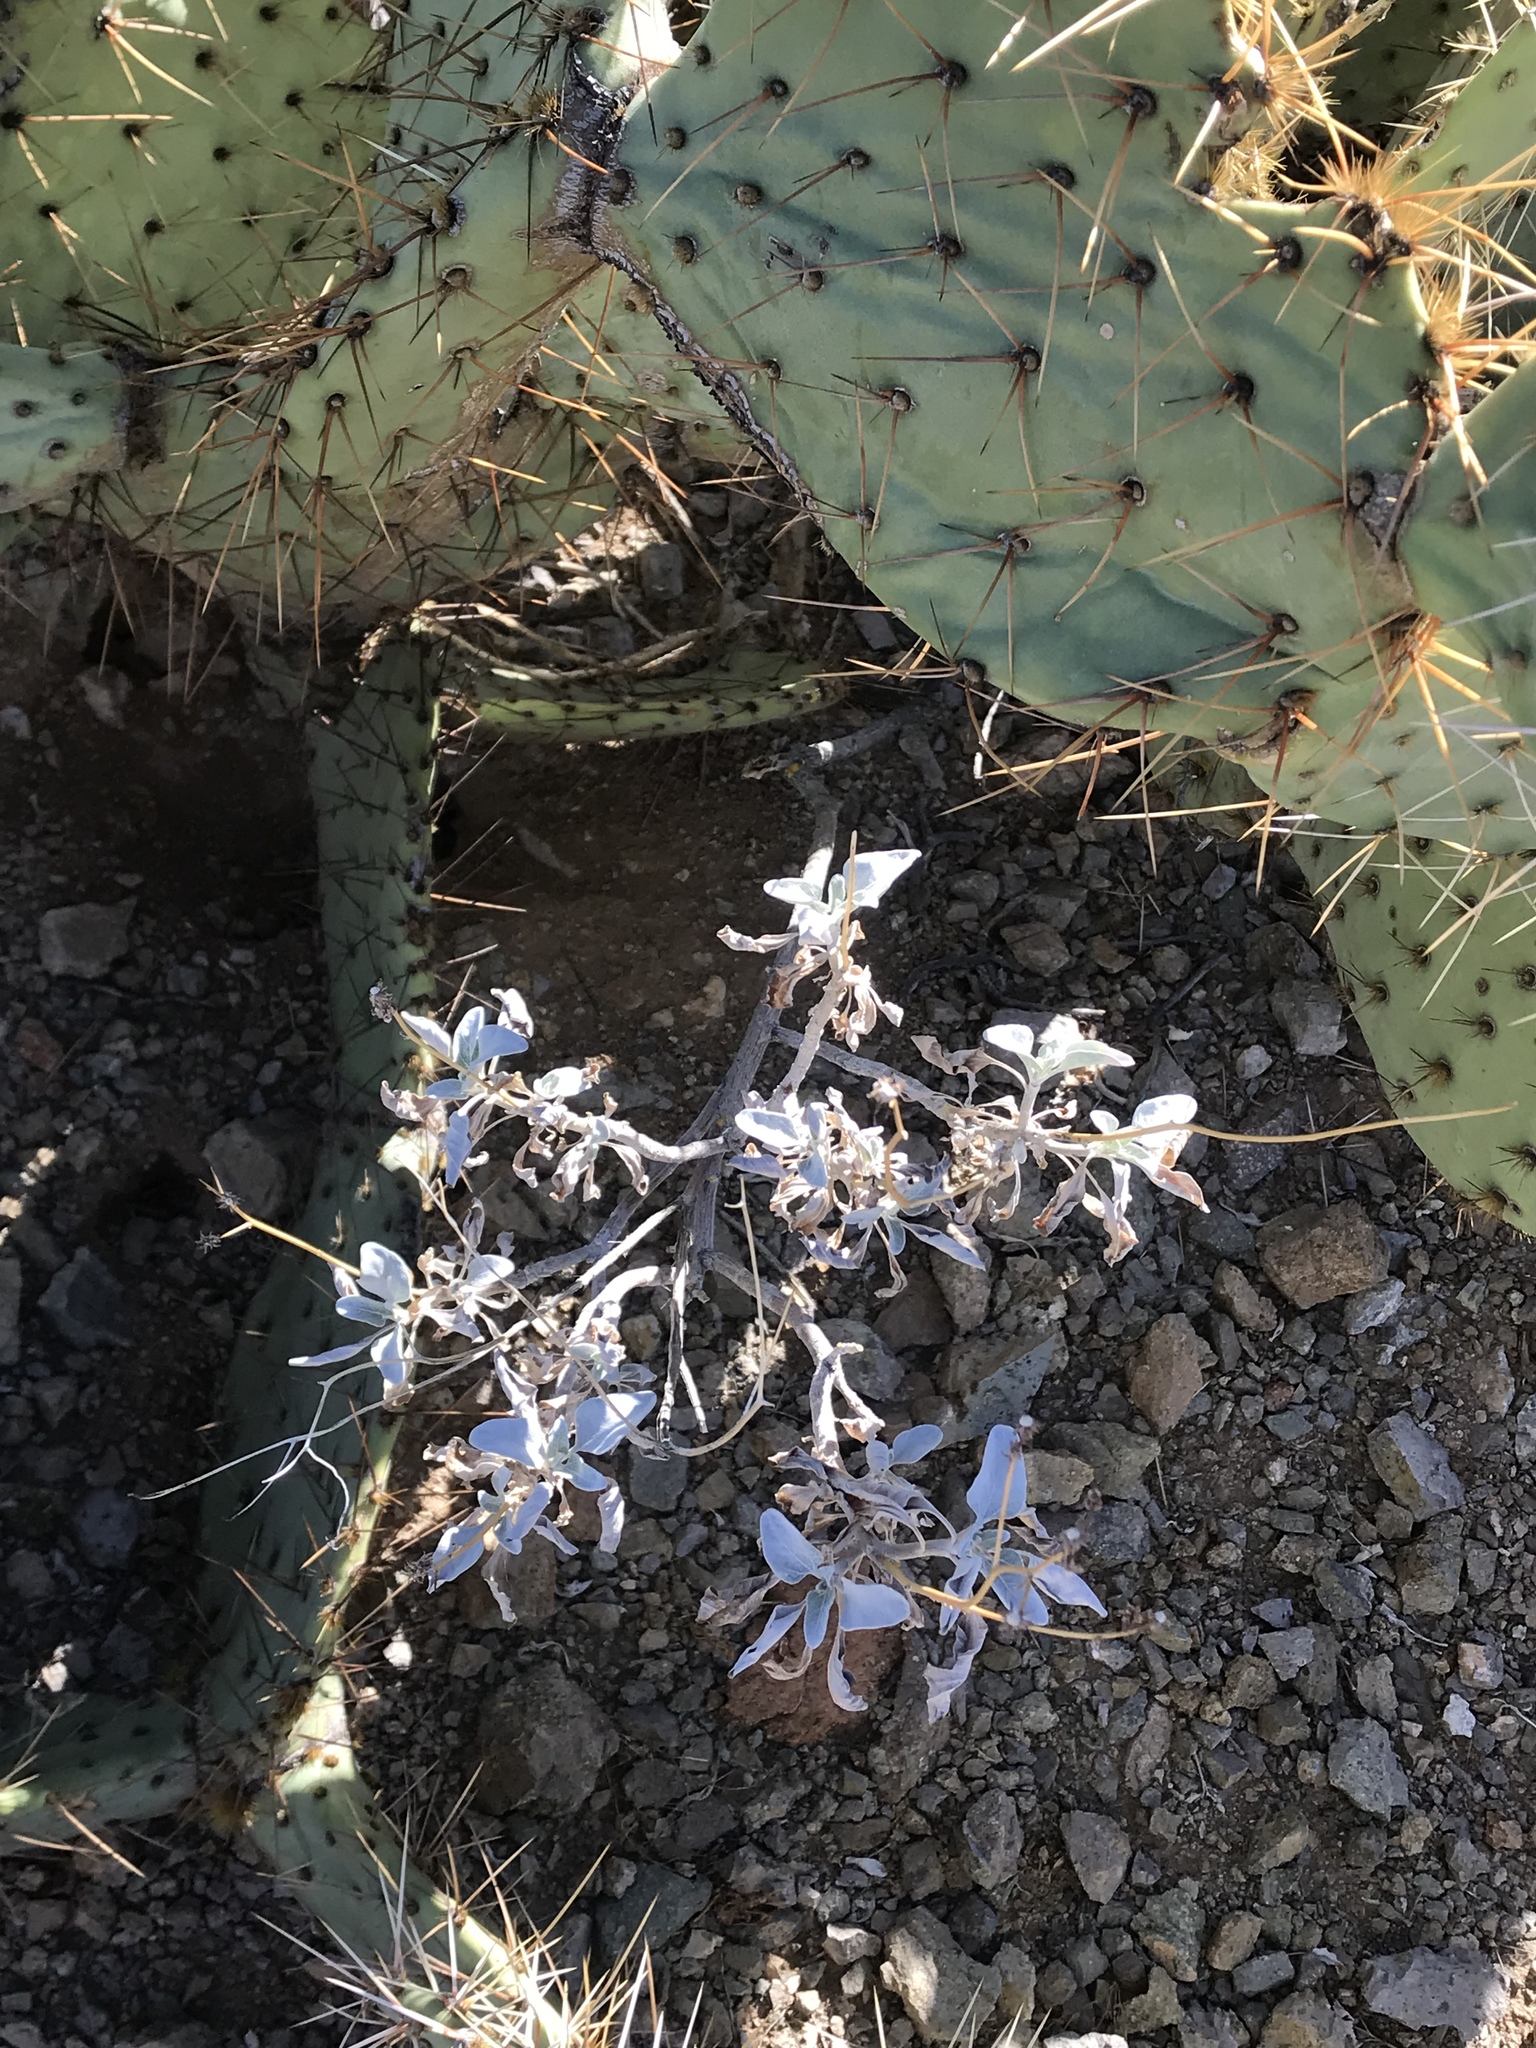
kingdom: Plantae
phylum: Tracheophyta
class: Magnoliopsida
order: Asterales
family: Asteraceae
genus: Encelia
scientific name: Encelia farinosa
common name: Brittlebush
